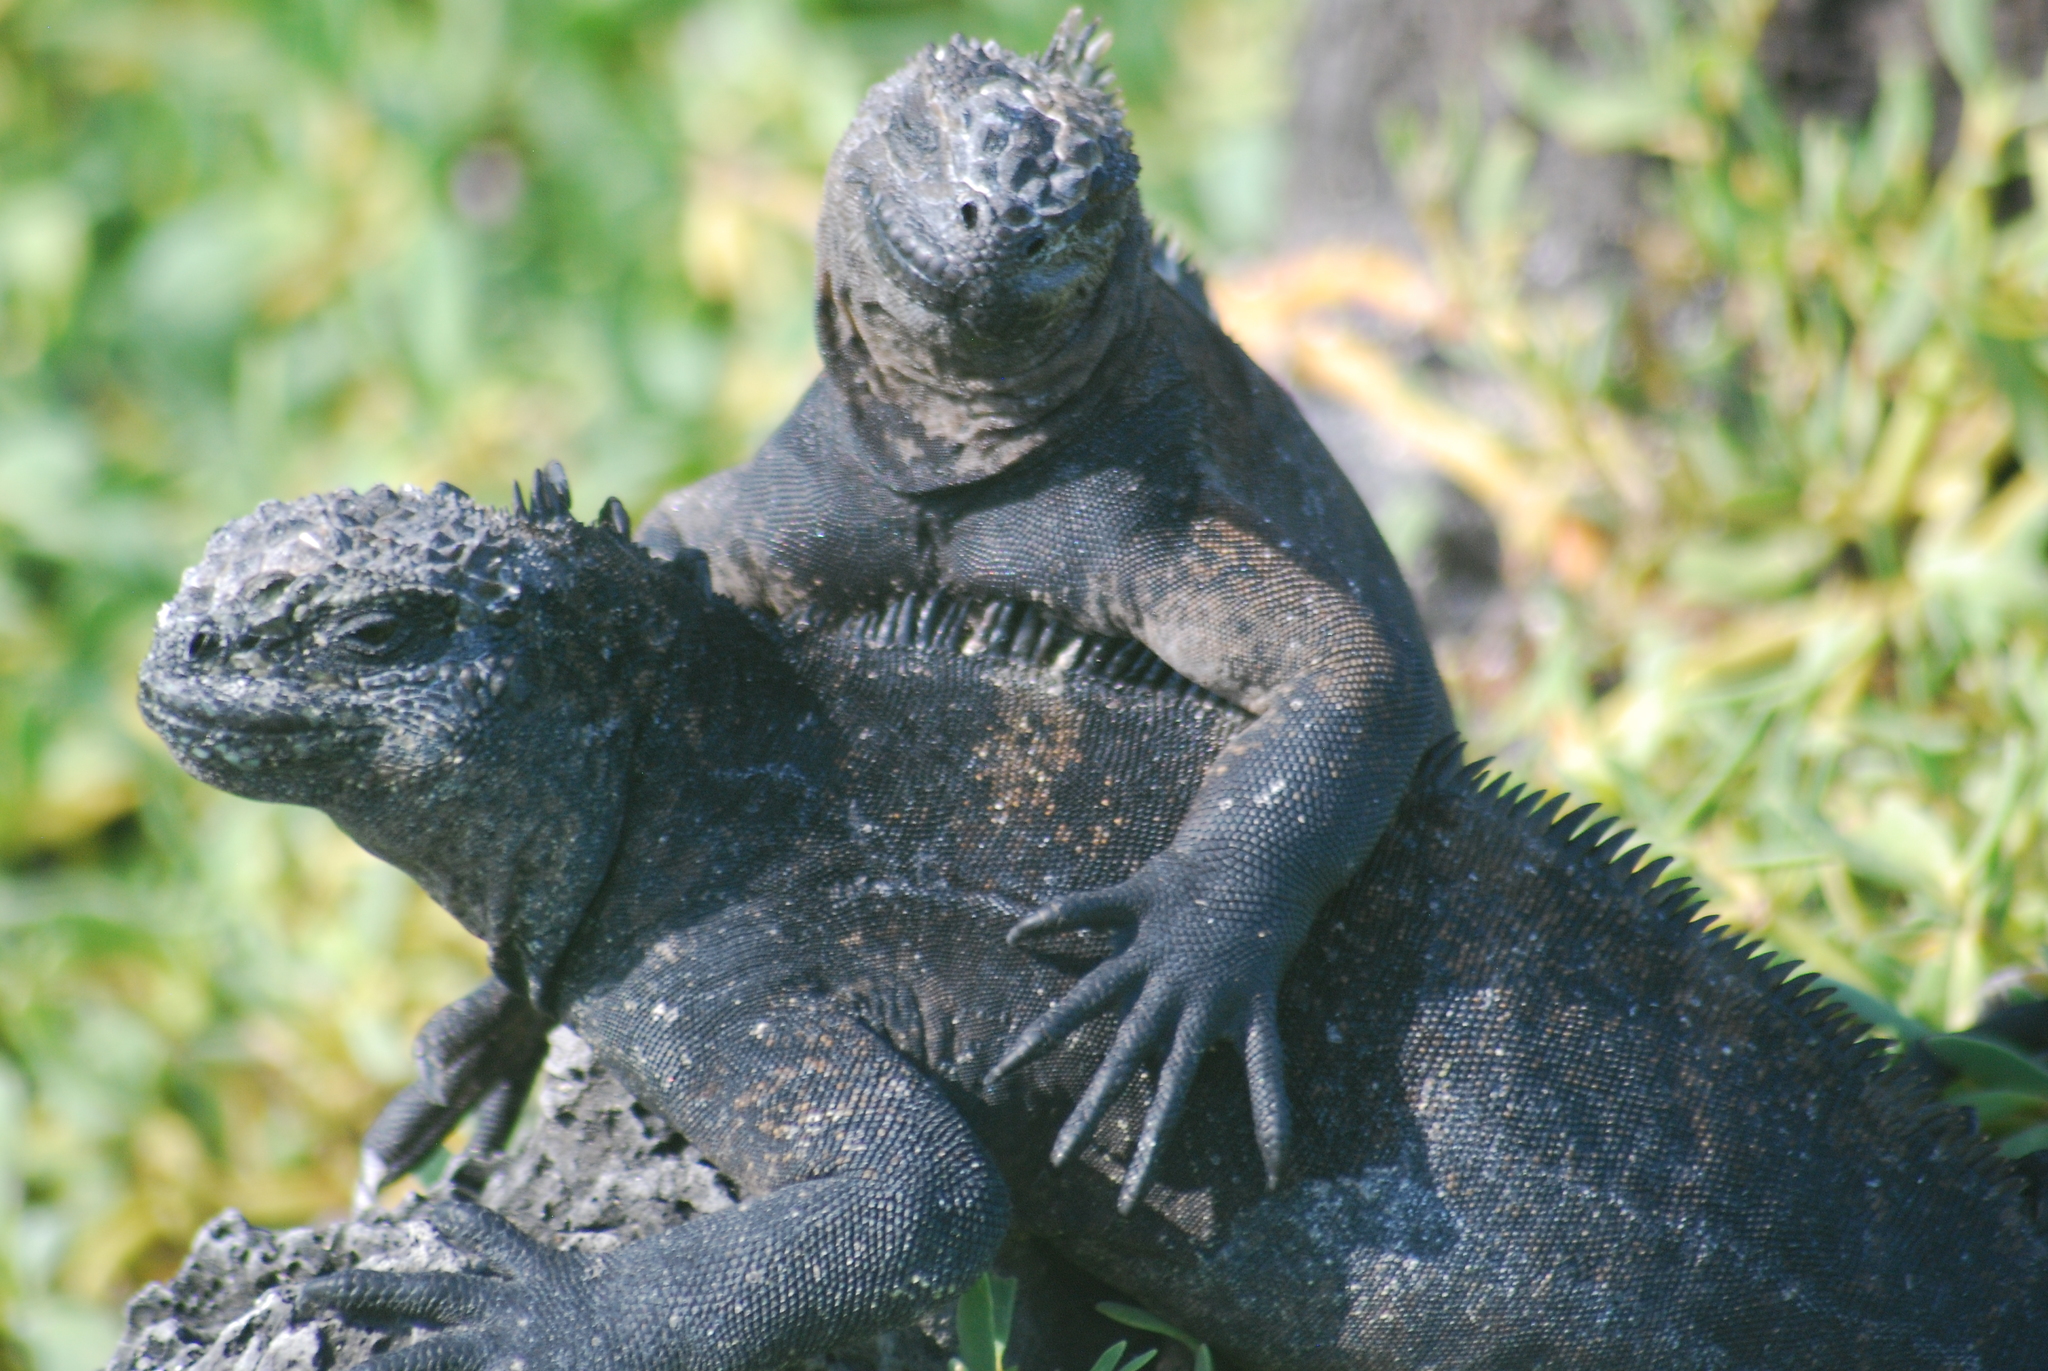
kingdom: Animalia
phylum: Chordata
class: Squamata
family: Iguanidae
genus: Amblyrhynchus
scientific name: Amblyrhynchus cristatus
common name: Marine iguana
